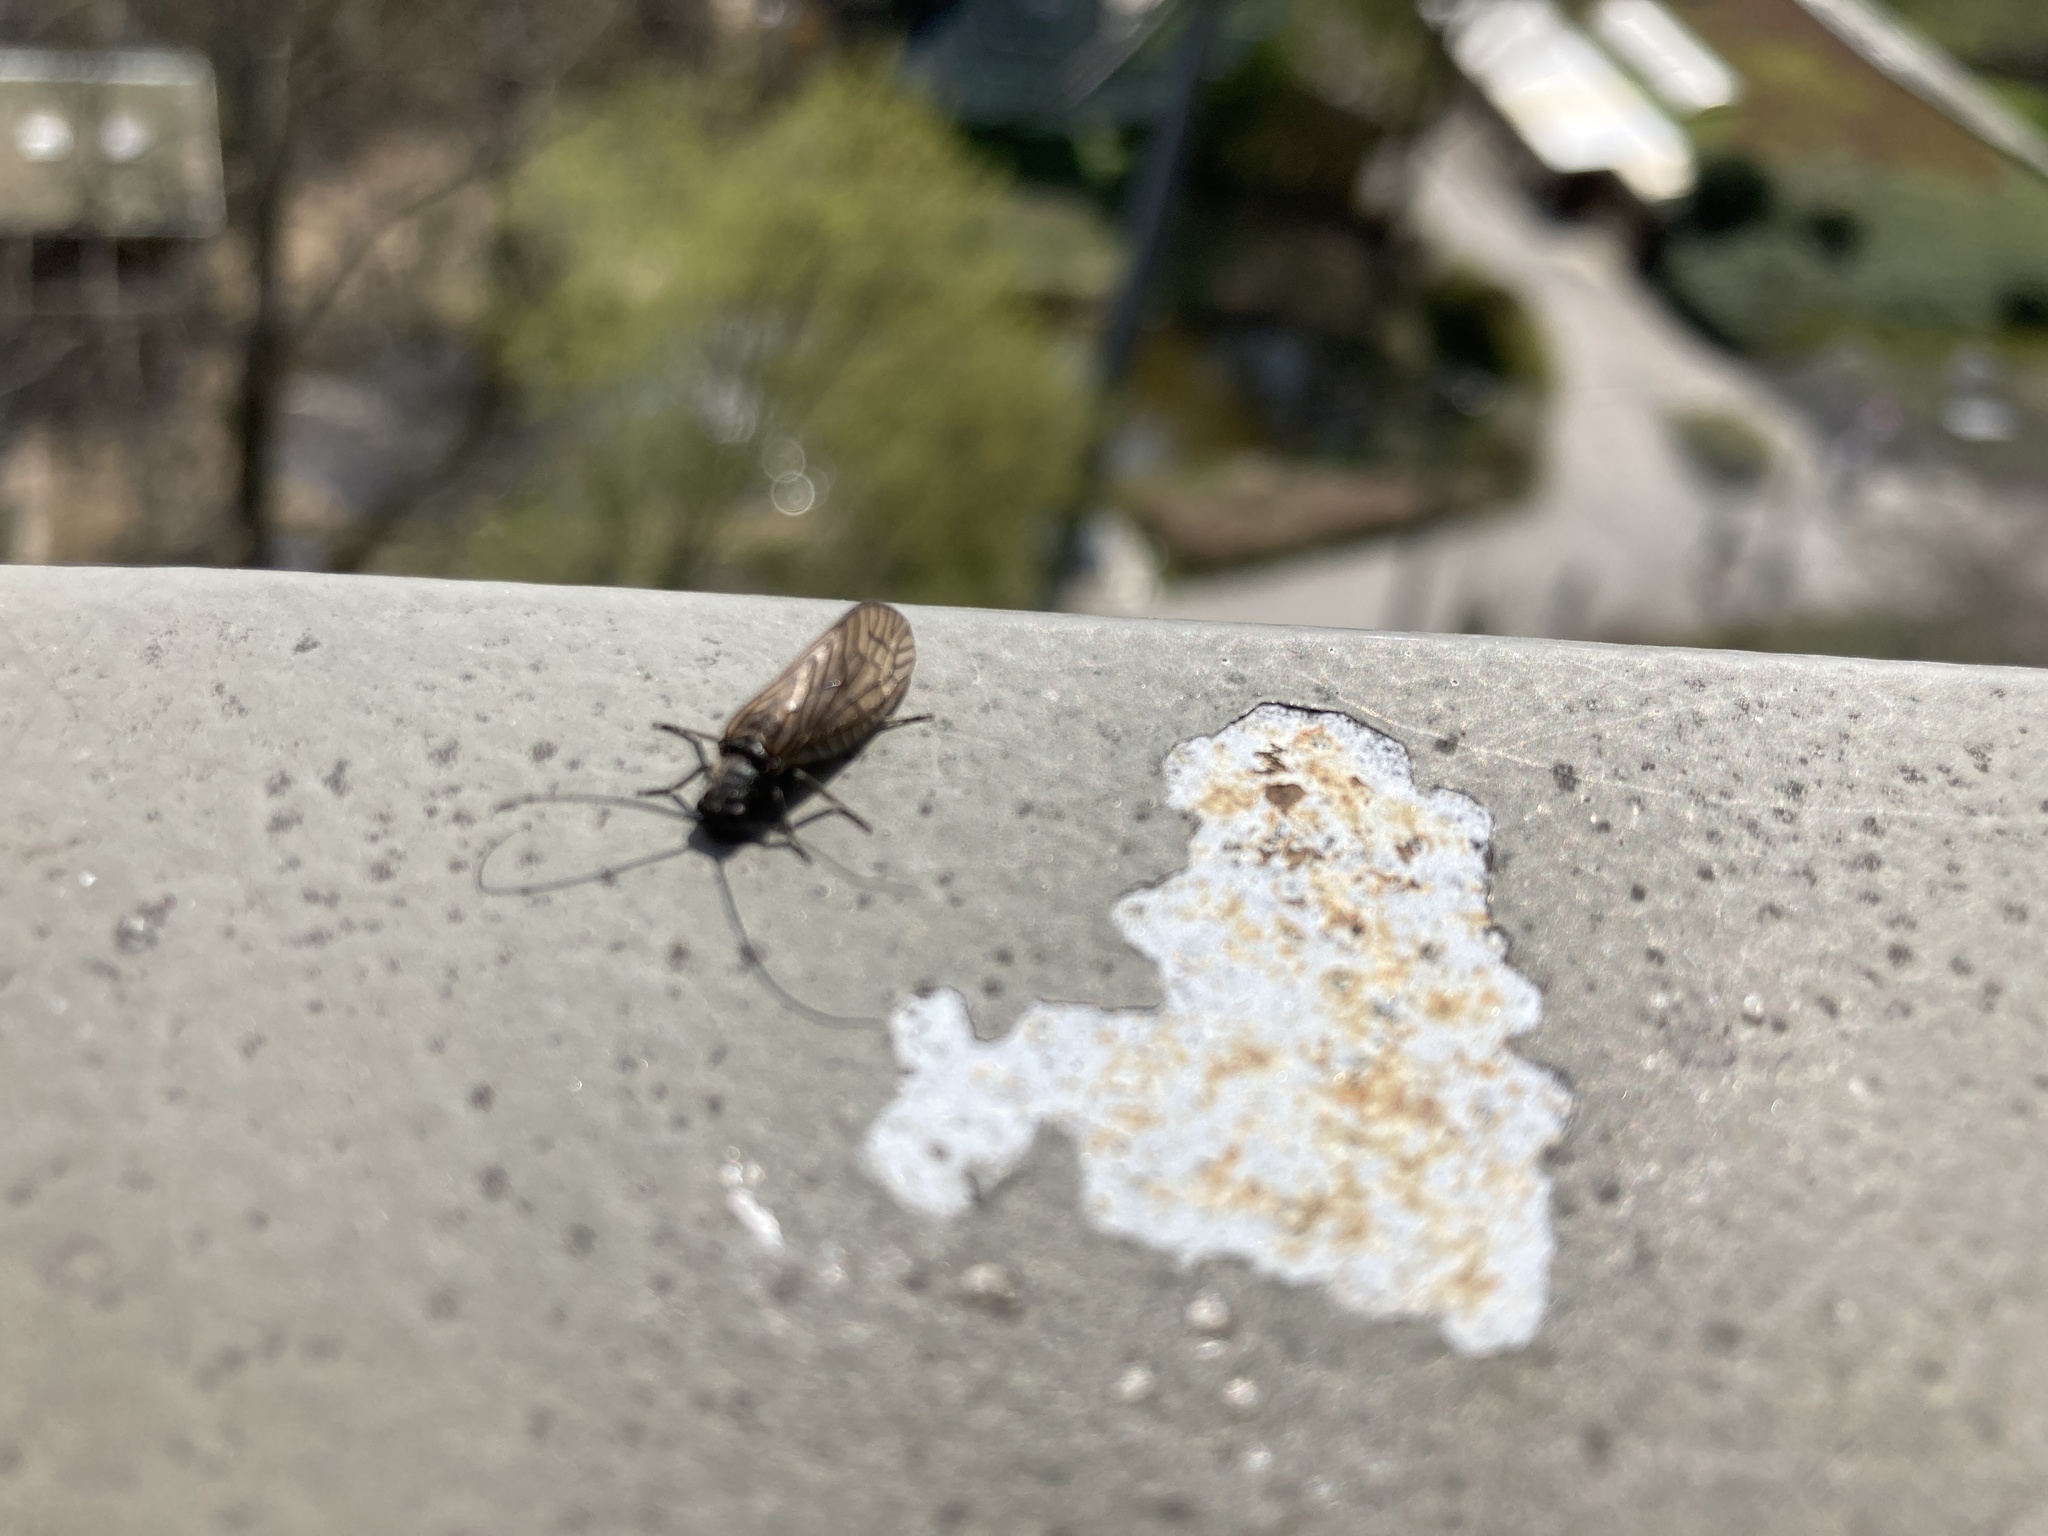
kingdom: Animalia
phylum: Arthropoda
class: Insecta
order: Megaloptera
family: Sialidae
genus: Sialis
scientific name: Sialis
